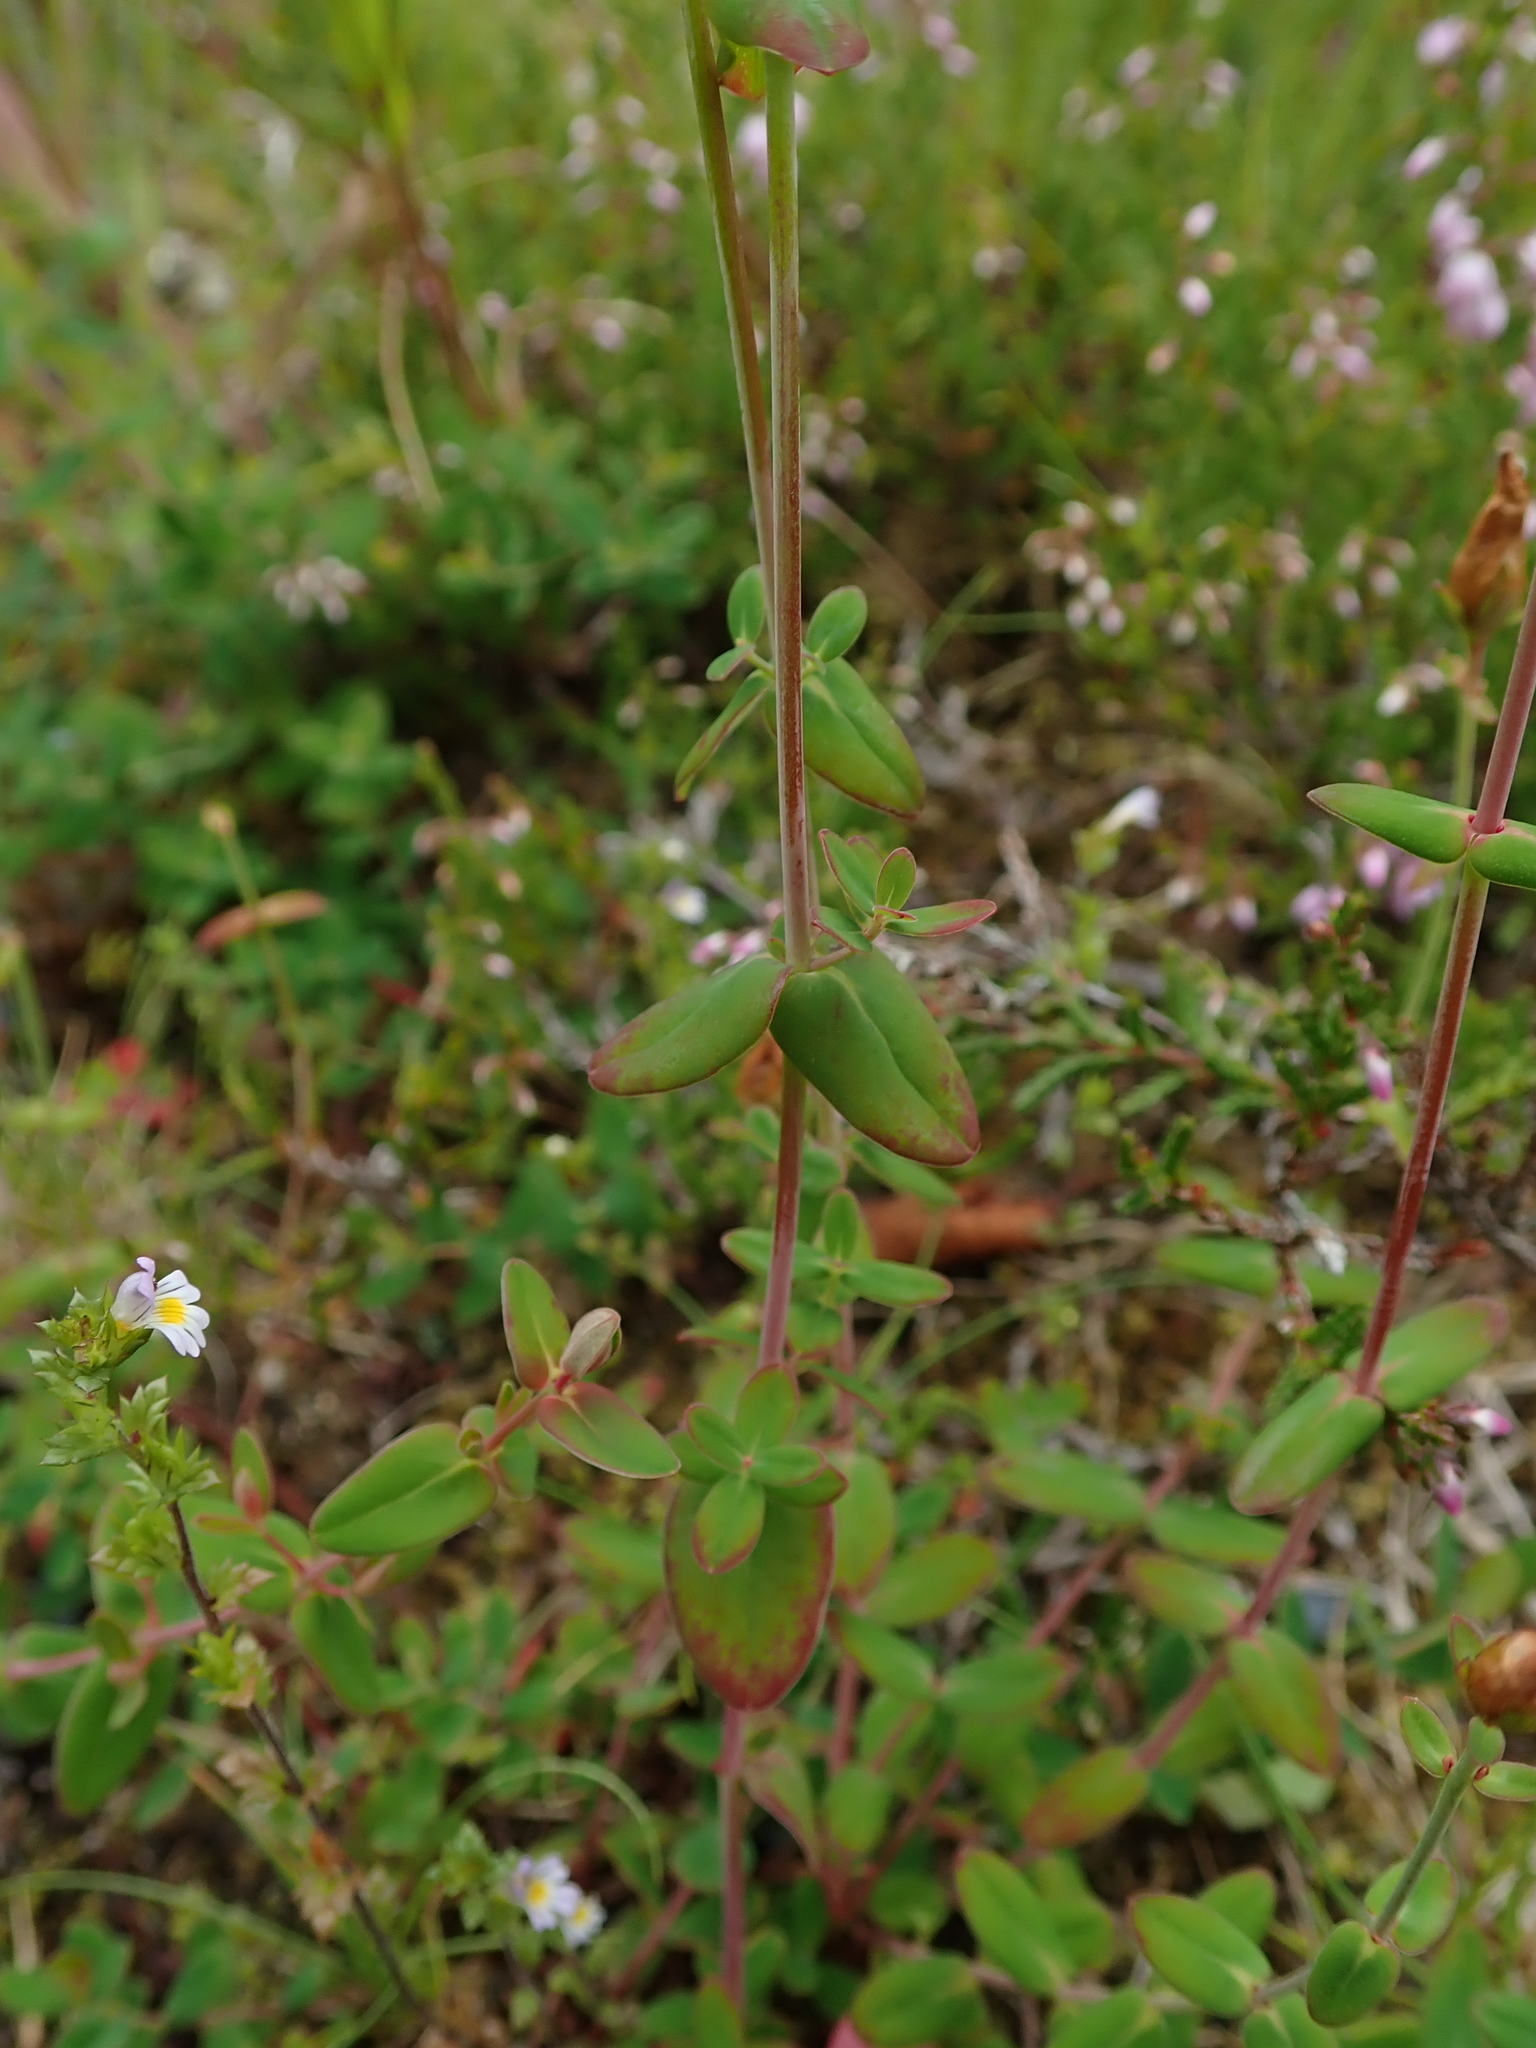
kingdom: Plantae
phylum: Tracheophyta
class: Magnoliopsida
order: Malpighiales
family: Hypericaceae
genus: Hypericum
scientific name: Hypericum pulchrum
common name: Slender st. john's-wort
